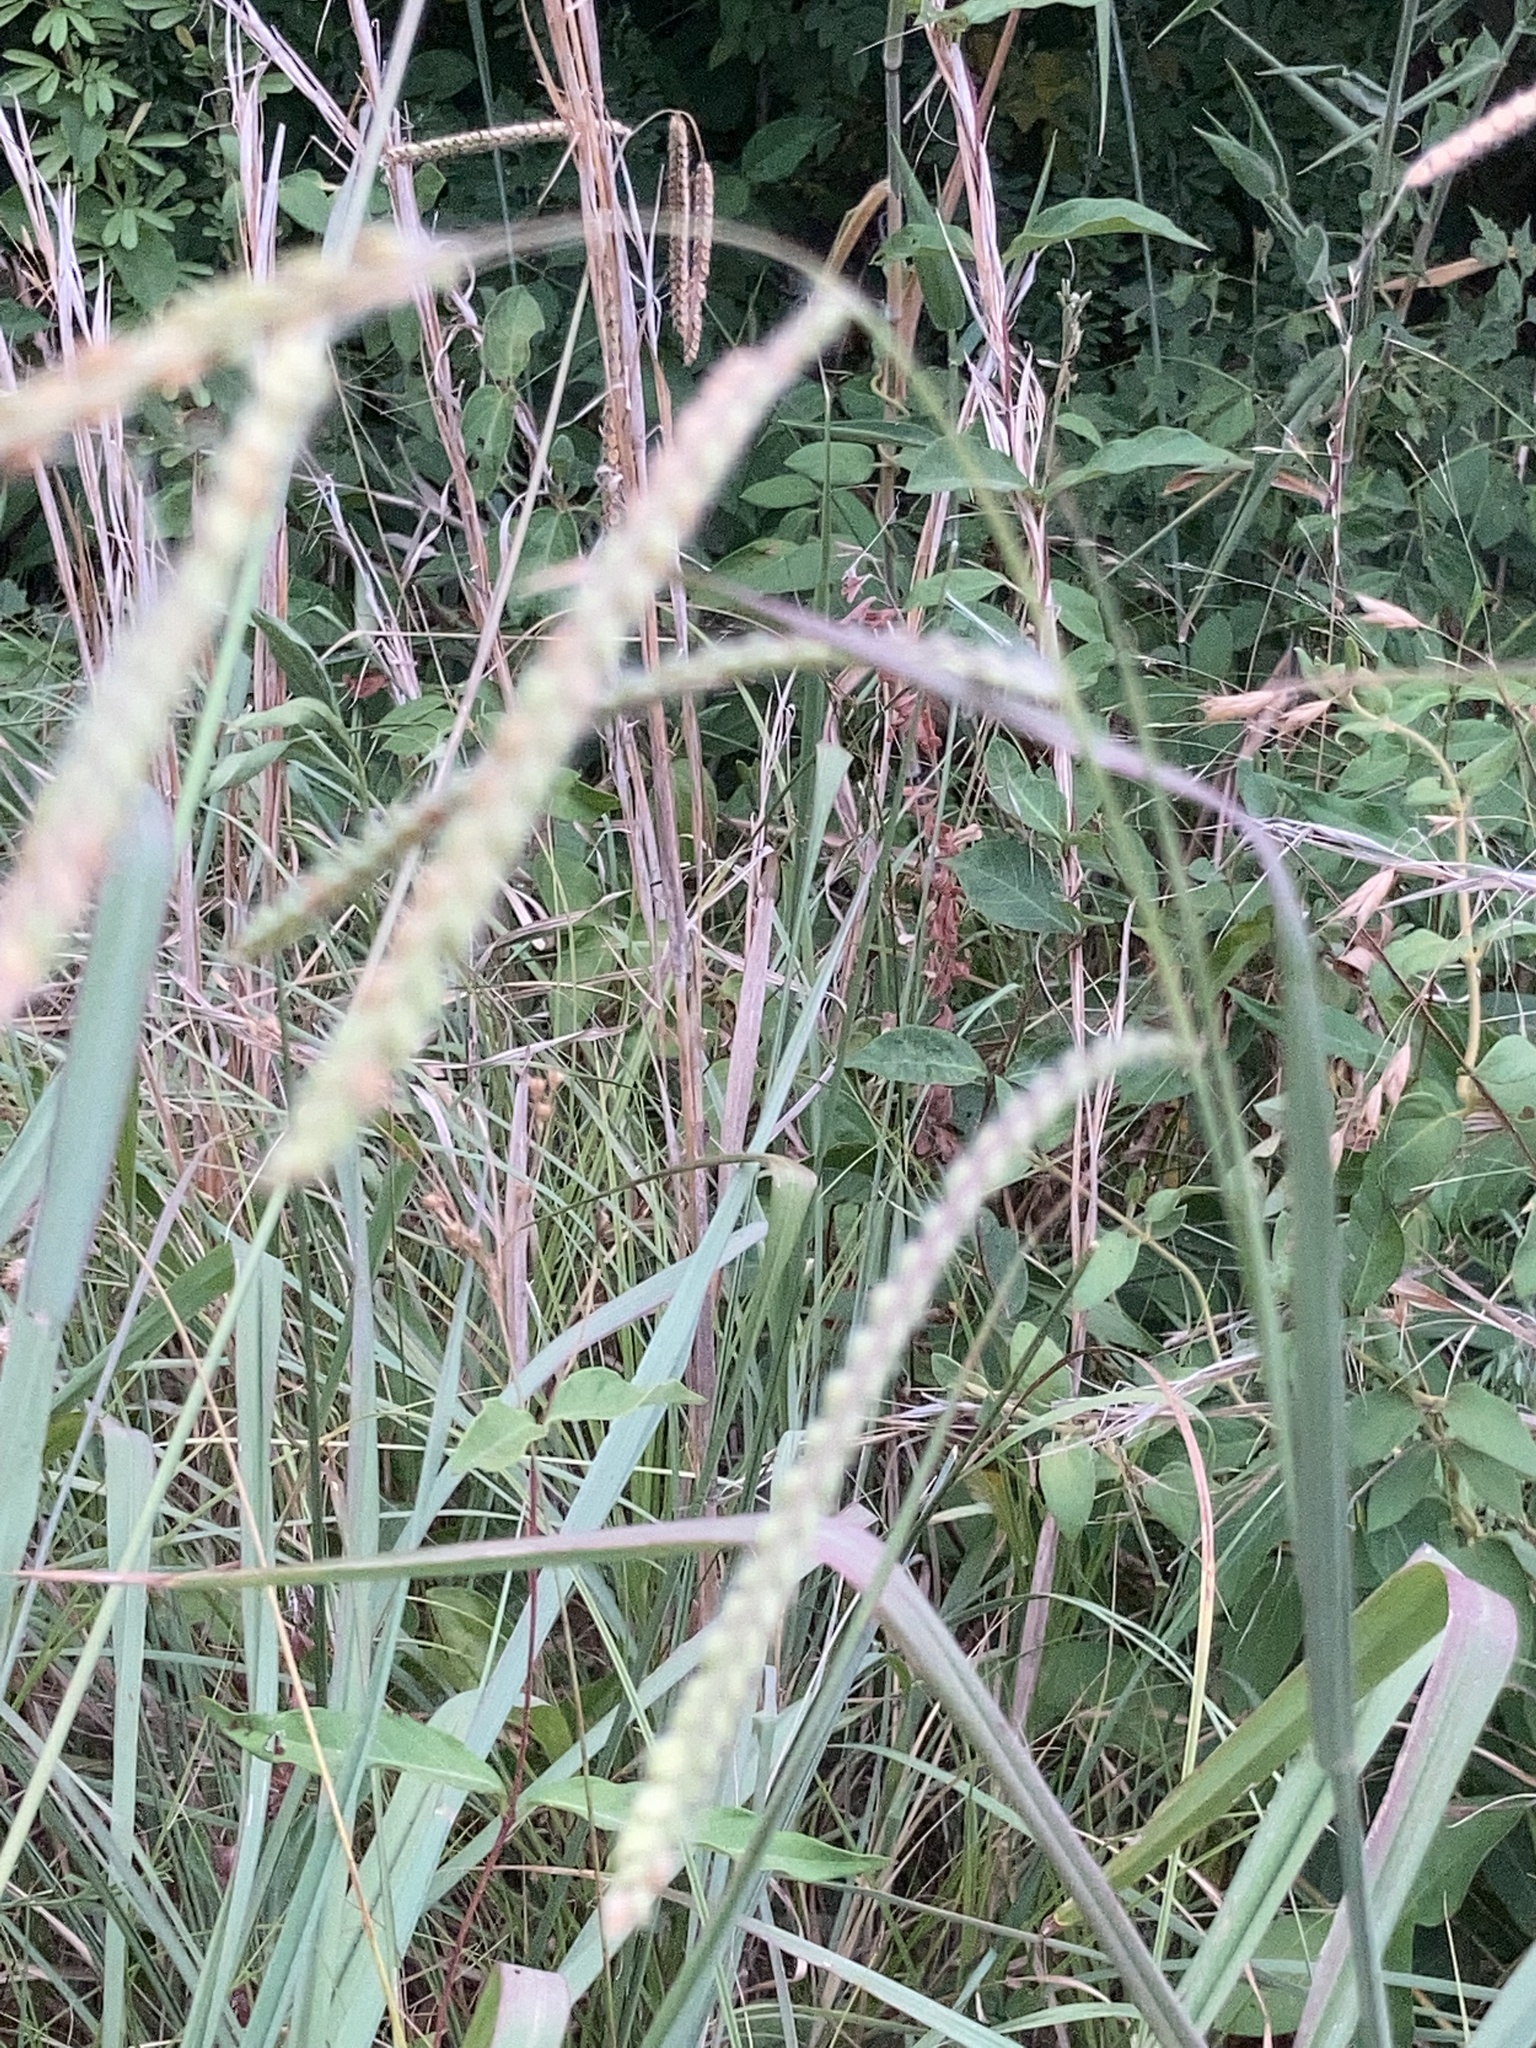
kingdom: Plantae
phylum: Tracheophyta
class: Liliopsida
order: Poales
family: Poaceae
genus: Paspalum
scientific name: Paspalum dilatatum
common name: Dallisgrass
